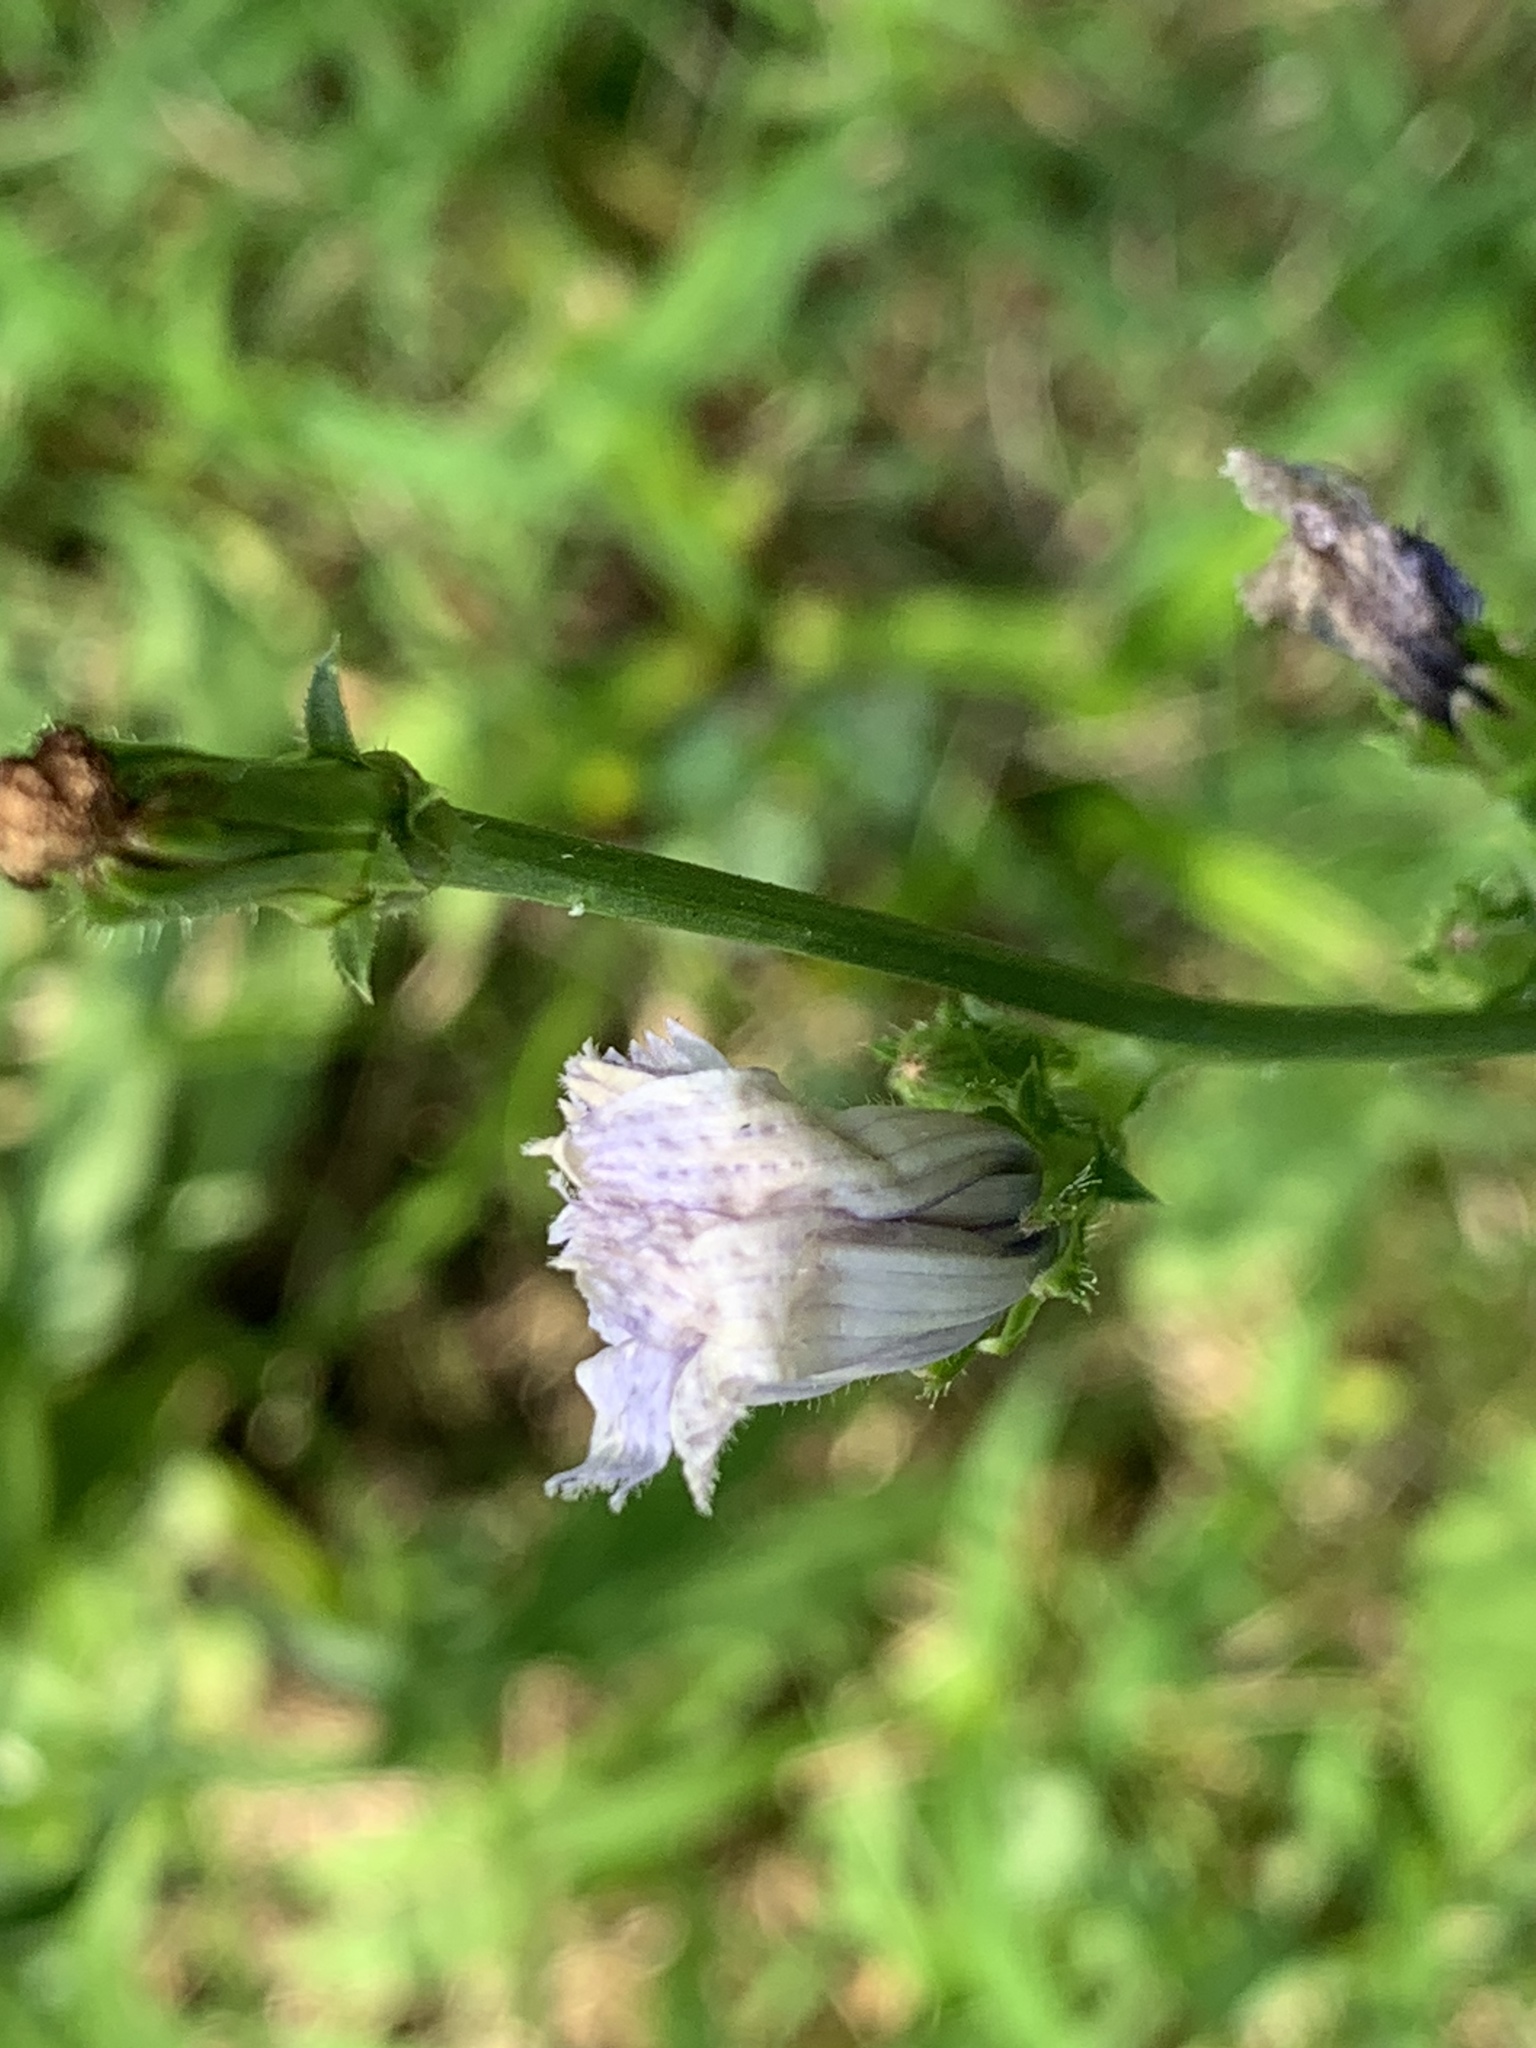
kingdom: Plantae
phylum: Tracheophyta
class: Magnoliopsida
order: Asterales
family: Asteraceae
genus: Cichorium
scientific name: Cichorium intybus
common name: Chicory
